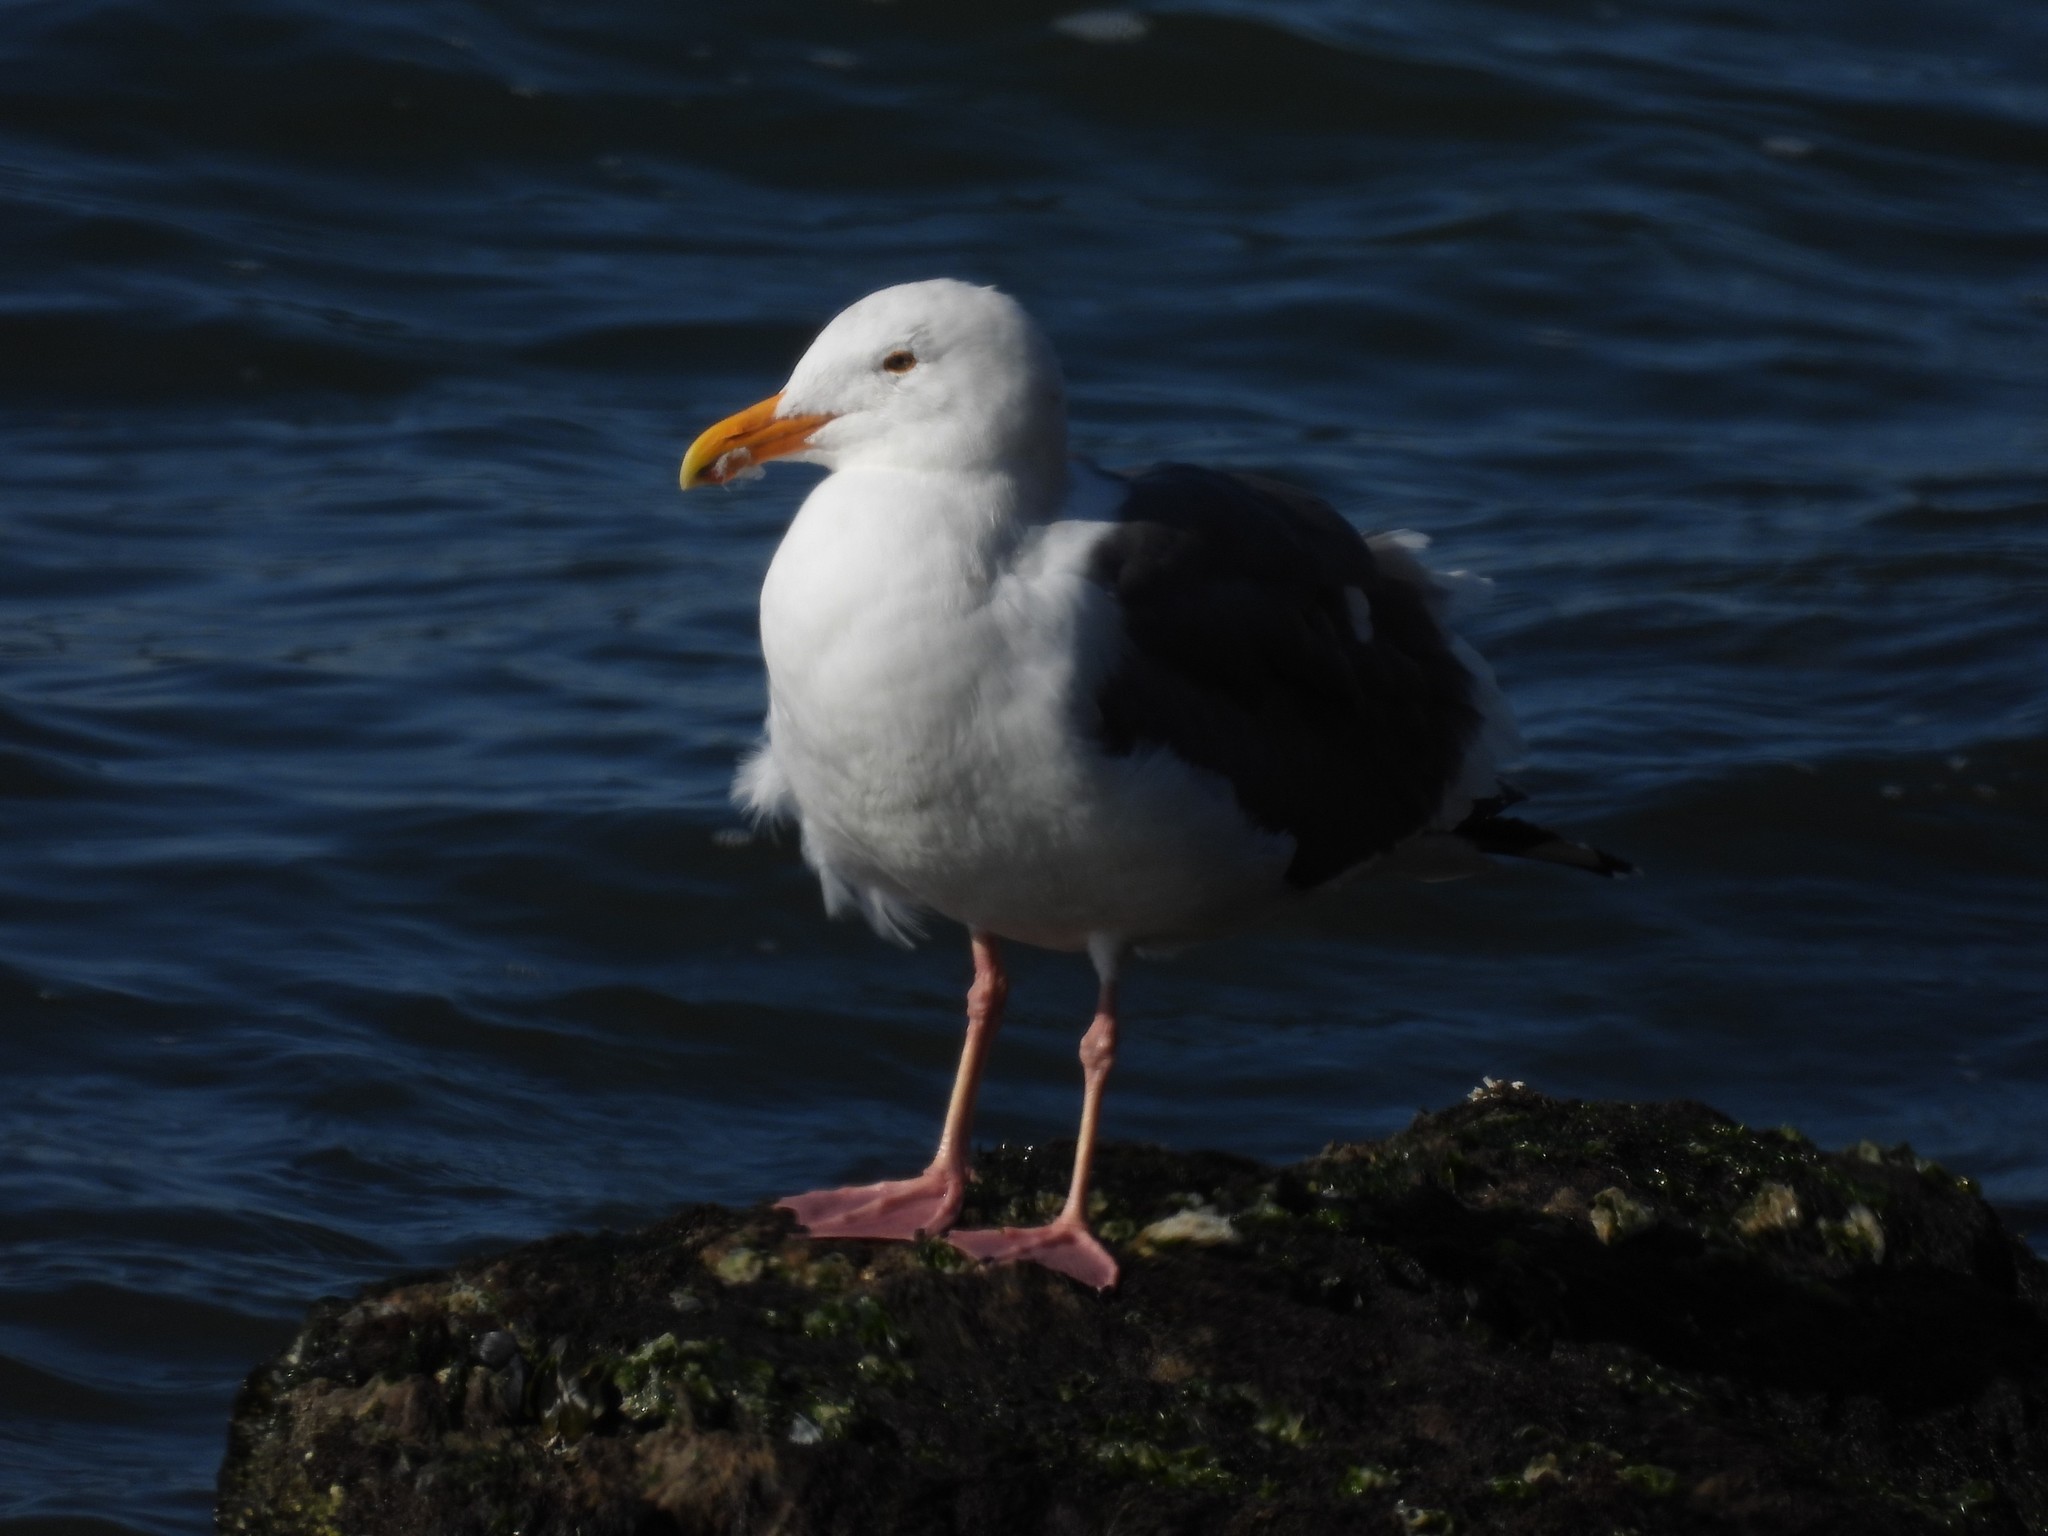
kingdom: Animalia
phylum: Chordata
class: Aves
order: Charadriiformes
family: Laridae
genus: Larus
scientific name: Larus occidentalis
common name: Western gull
